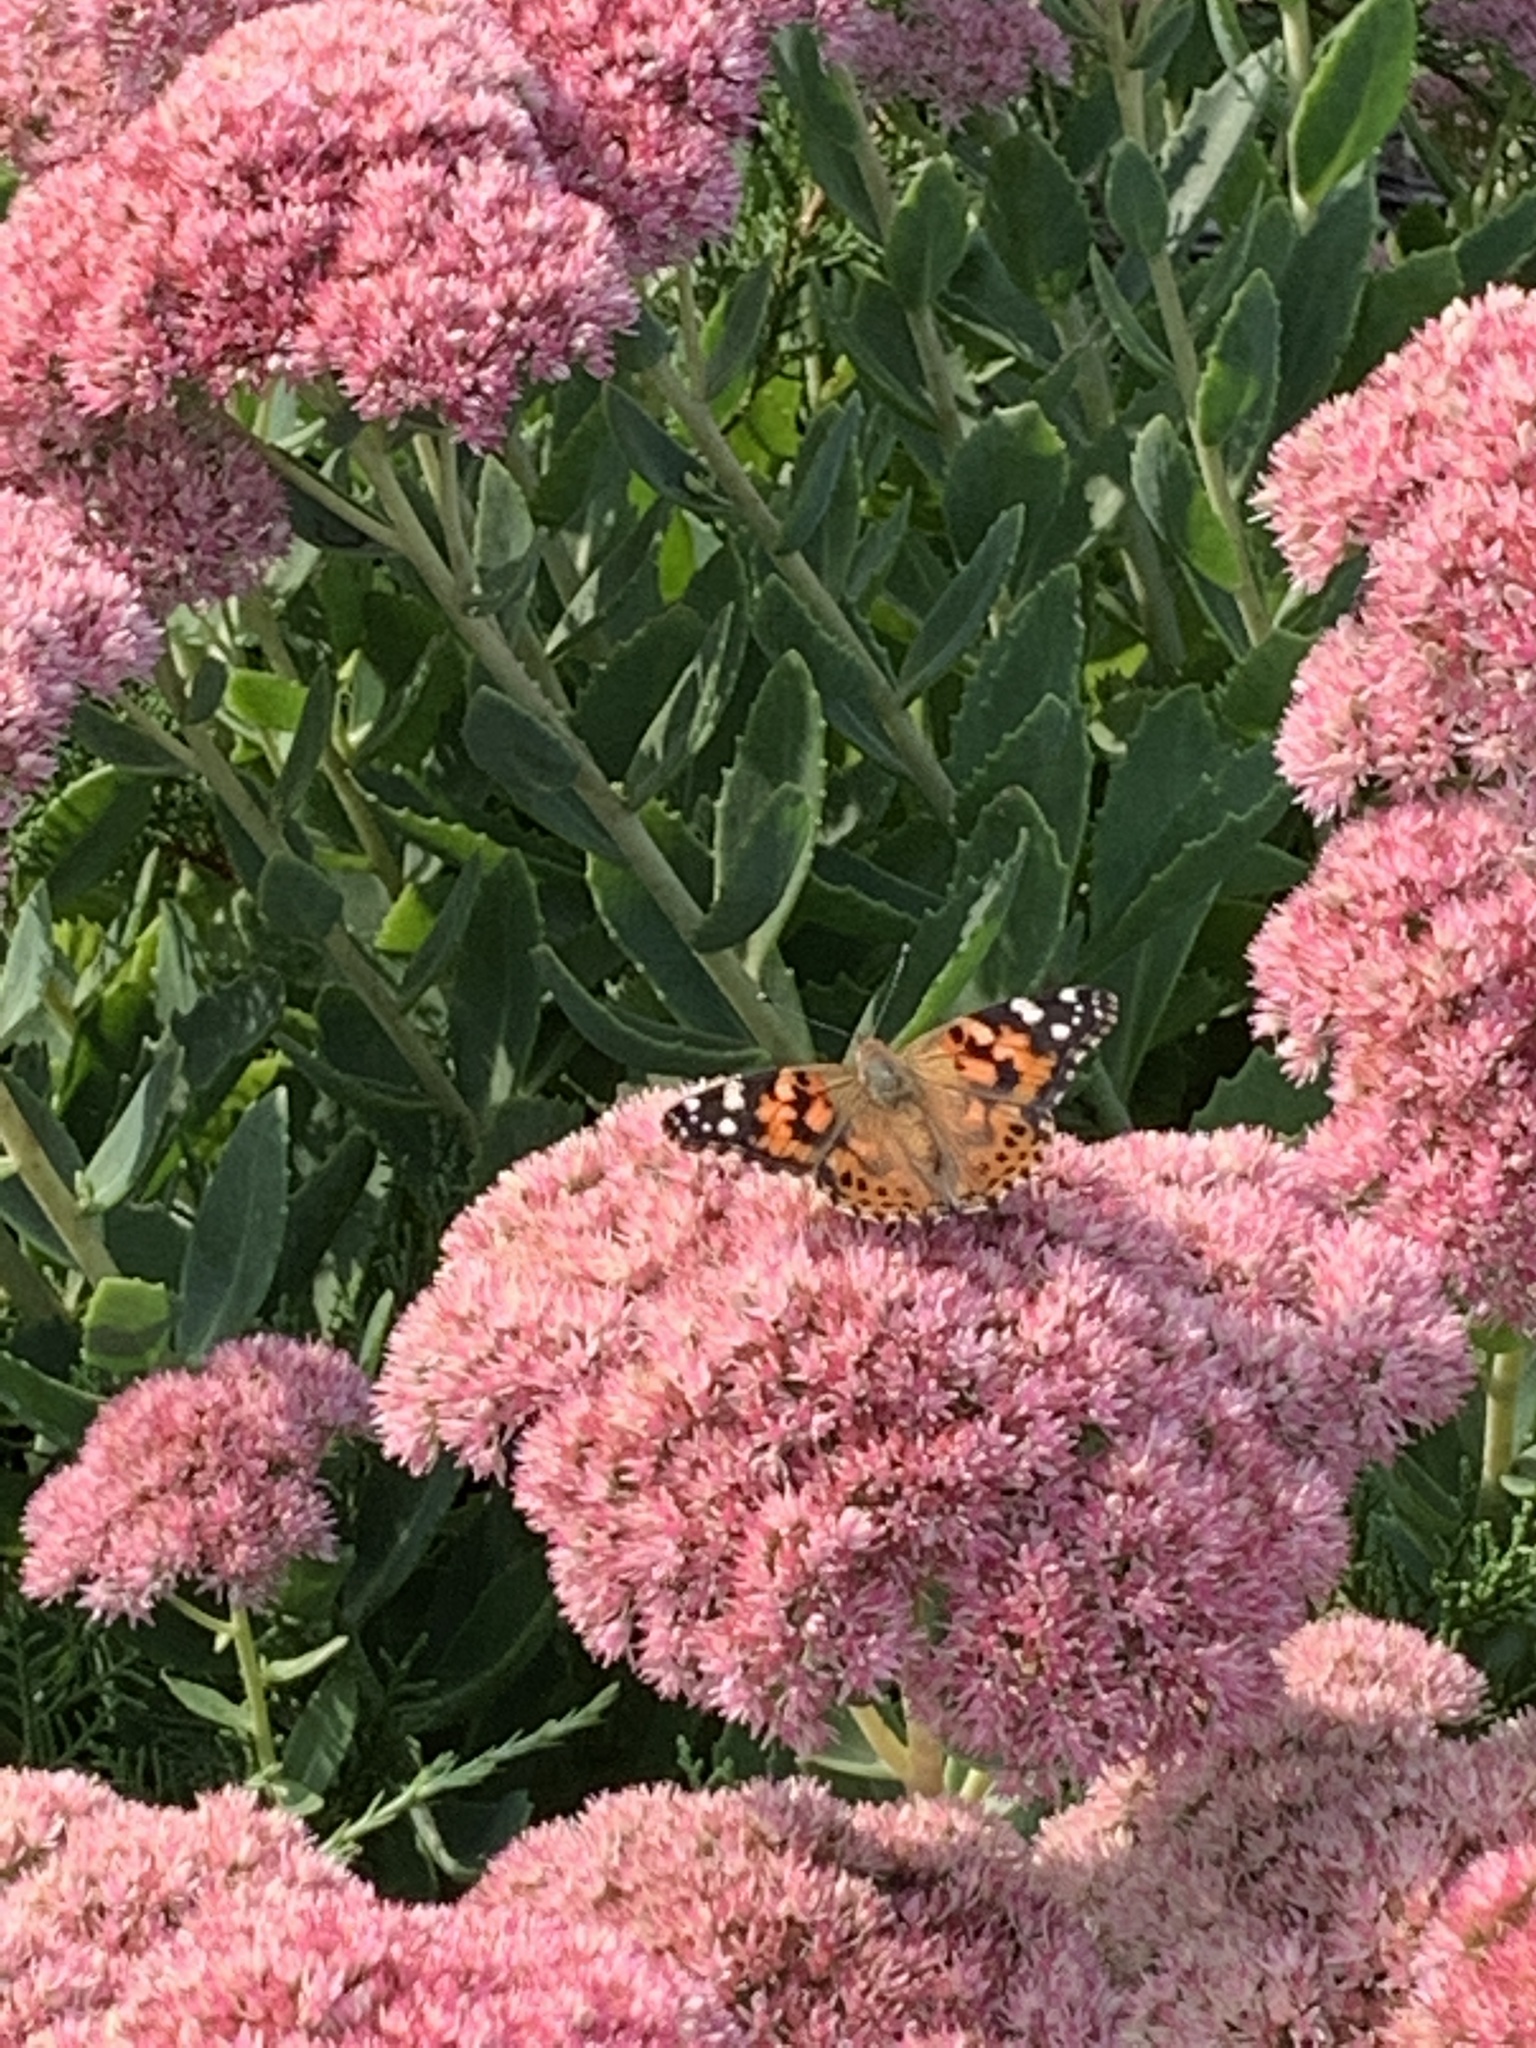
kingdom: Animalia
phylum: Arthropoda
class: Insecta
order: Lepidoptera
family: Nymphalidae
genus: Vanessa
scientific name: Vanessa cardui
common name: Painted lady
